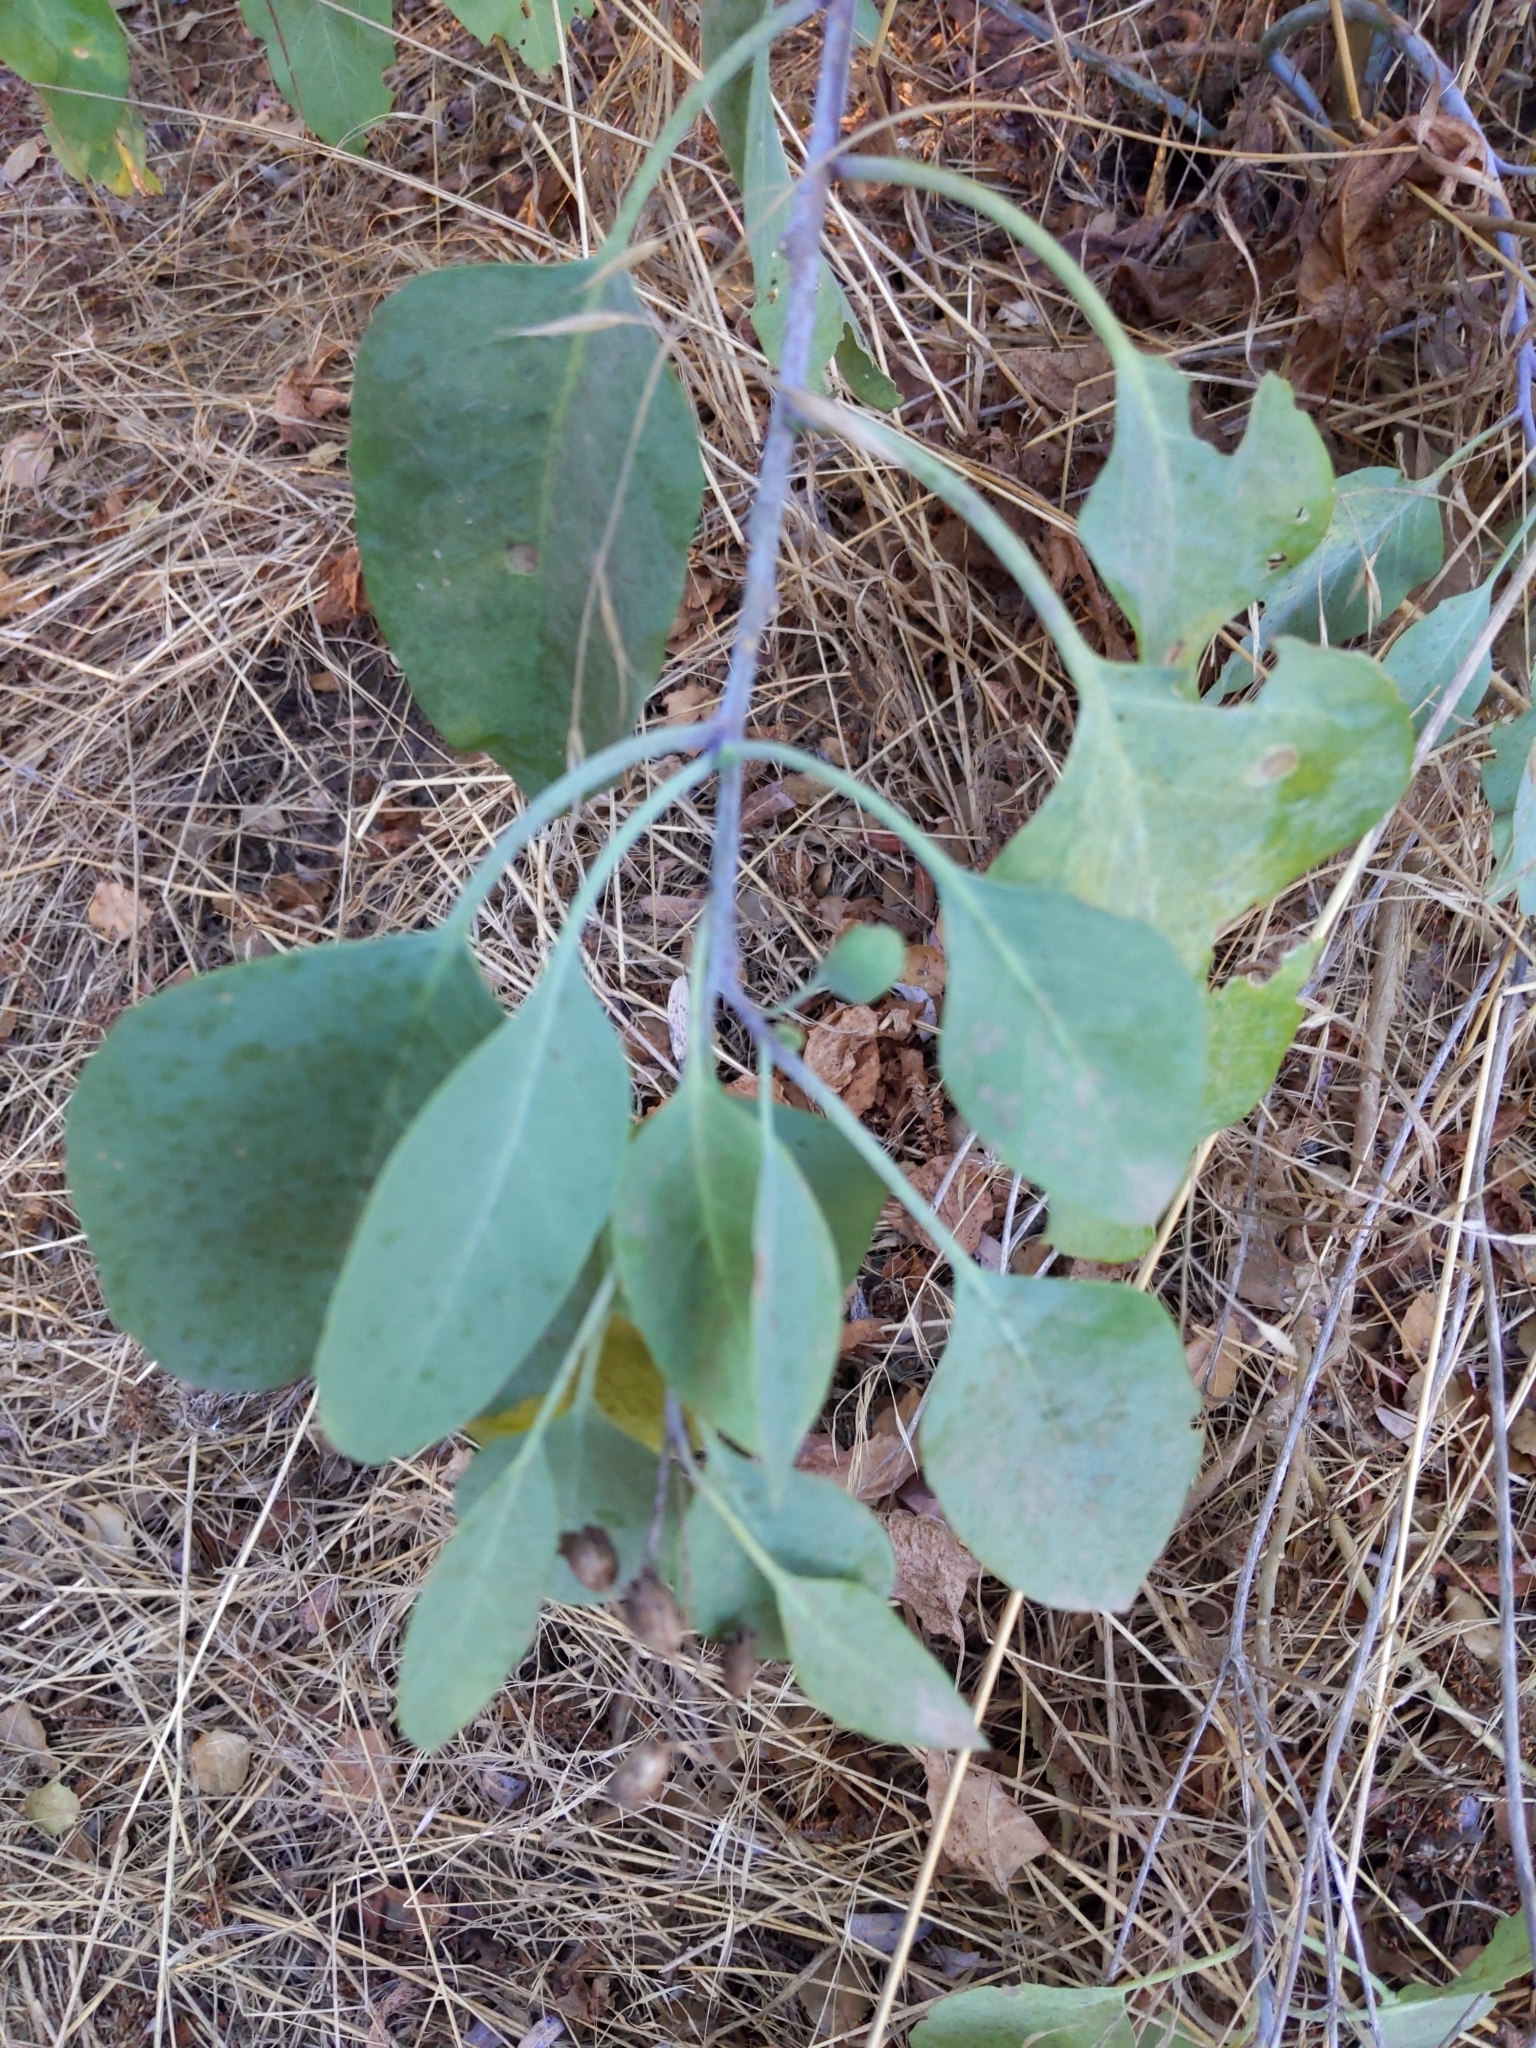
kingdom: Plantae
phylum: Tracheophyta
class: Magnoliopsida
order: Solanales
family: Solanaceae
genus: Nicotiana
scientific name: Nicotiana glauca
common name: Tree tobacco
